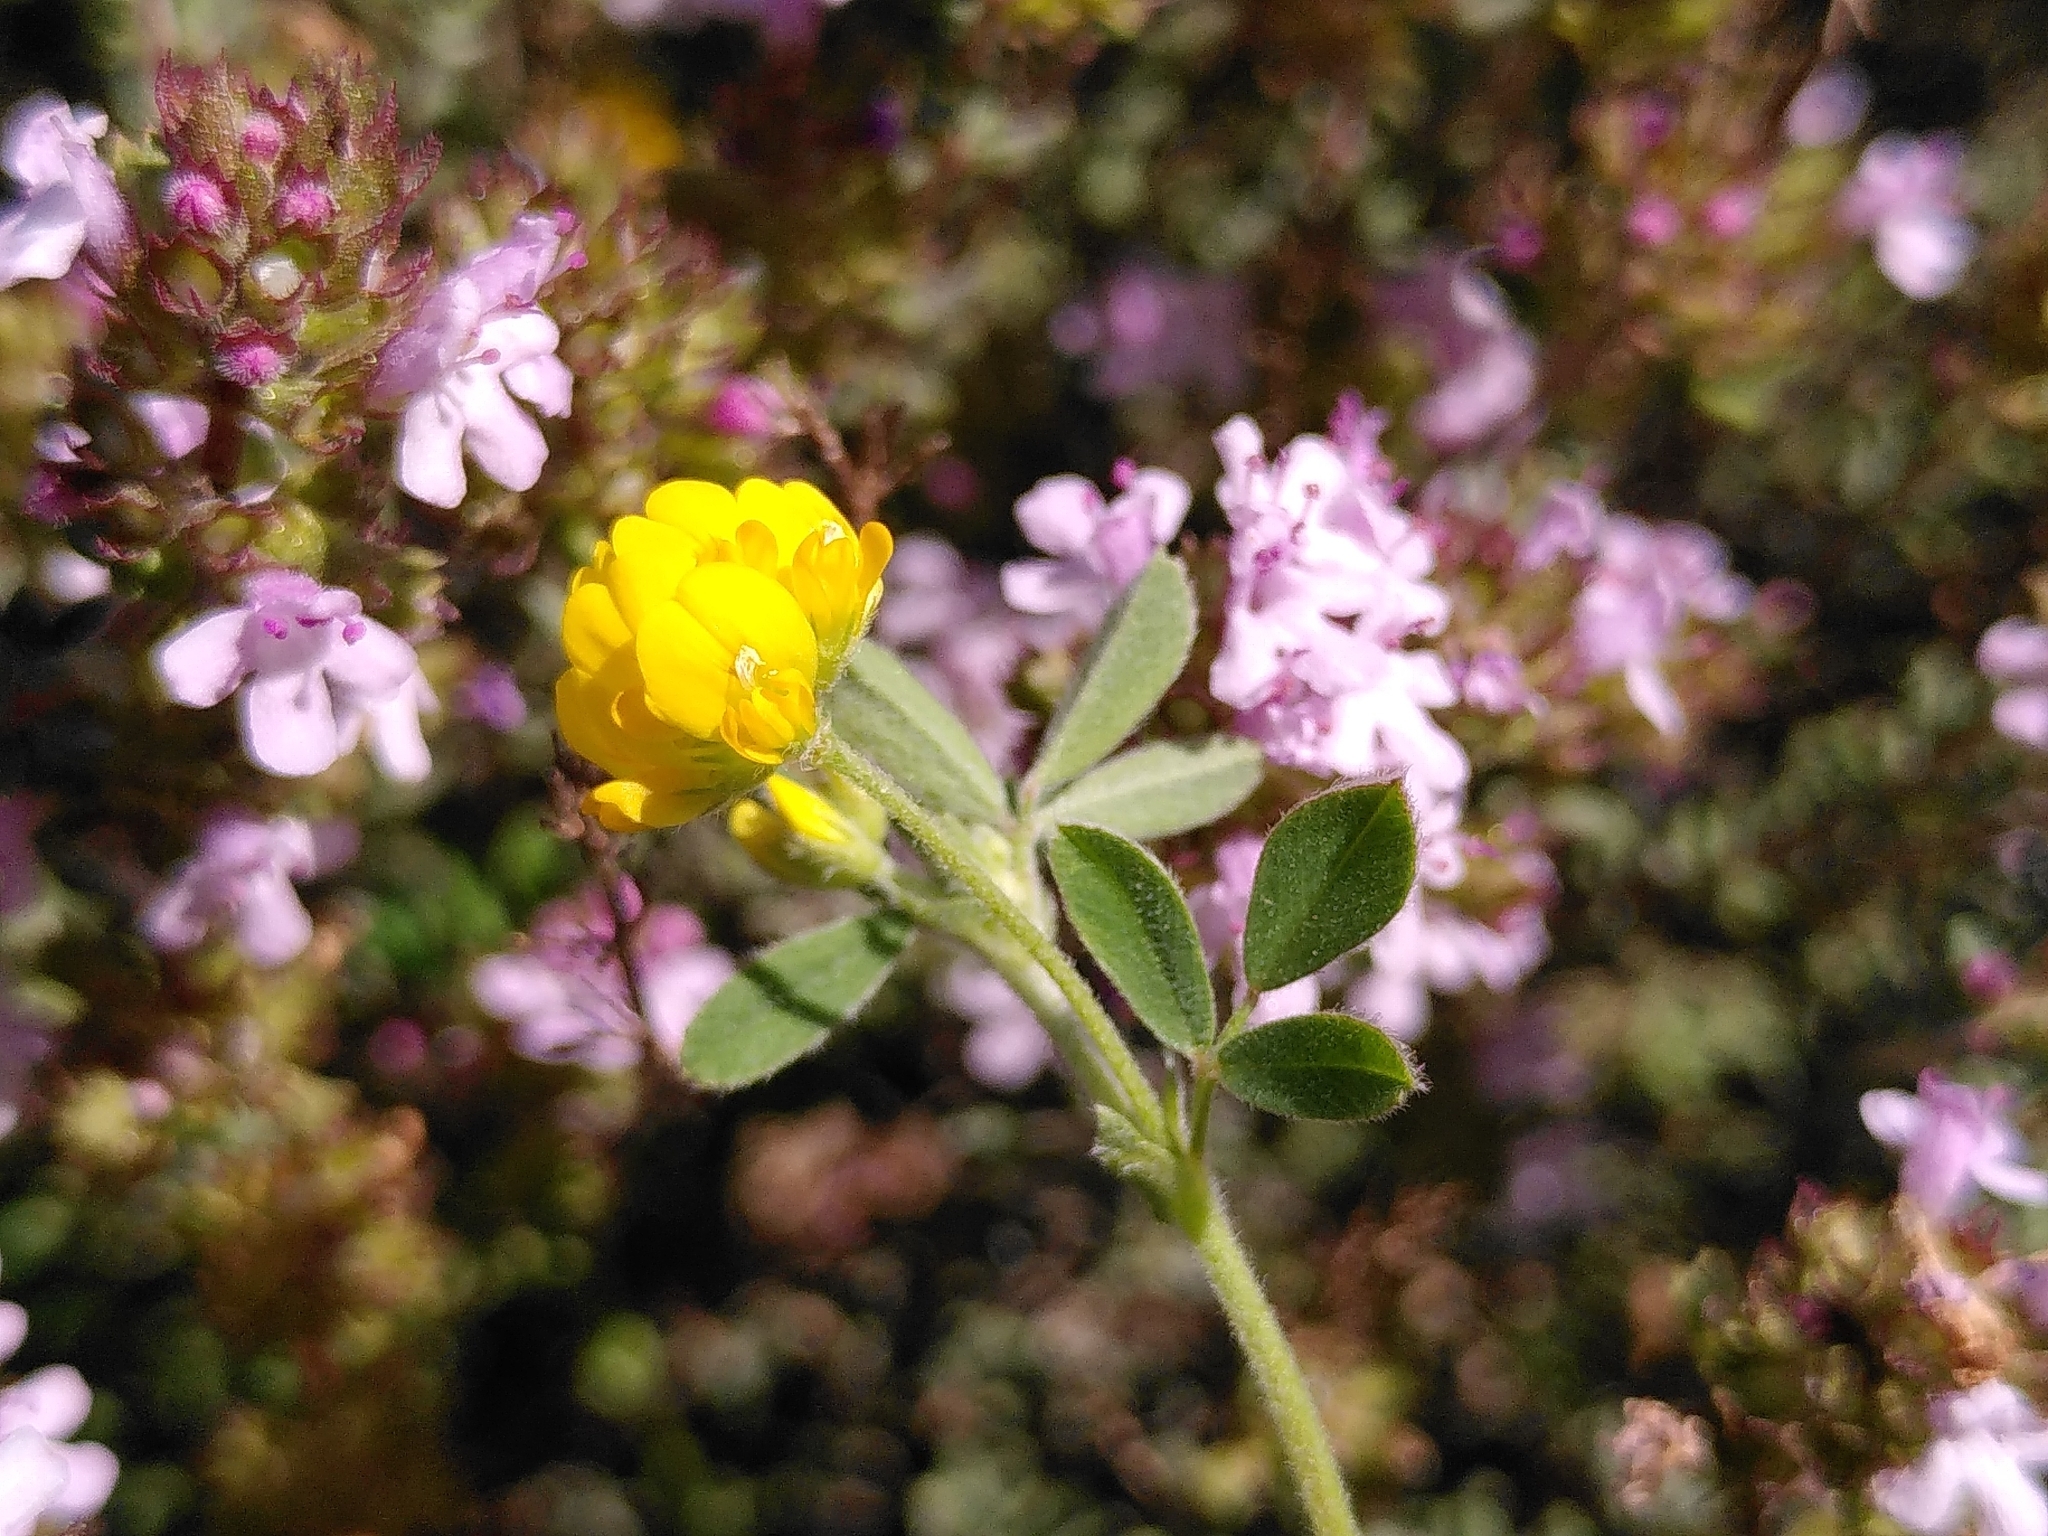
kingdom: Plantae
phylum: Tracheophyta
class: Magnoliopsida
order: Fabales
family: Fabaceae
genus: Medicago
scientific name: Medicago minima
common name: Little bur-clover
